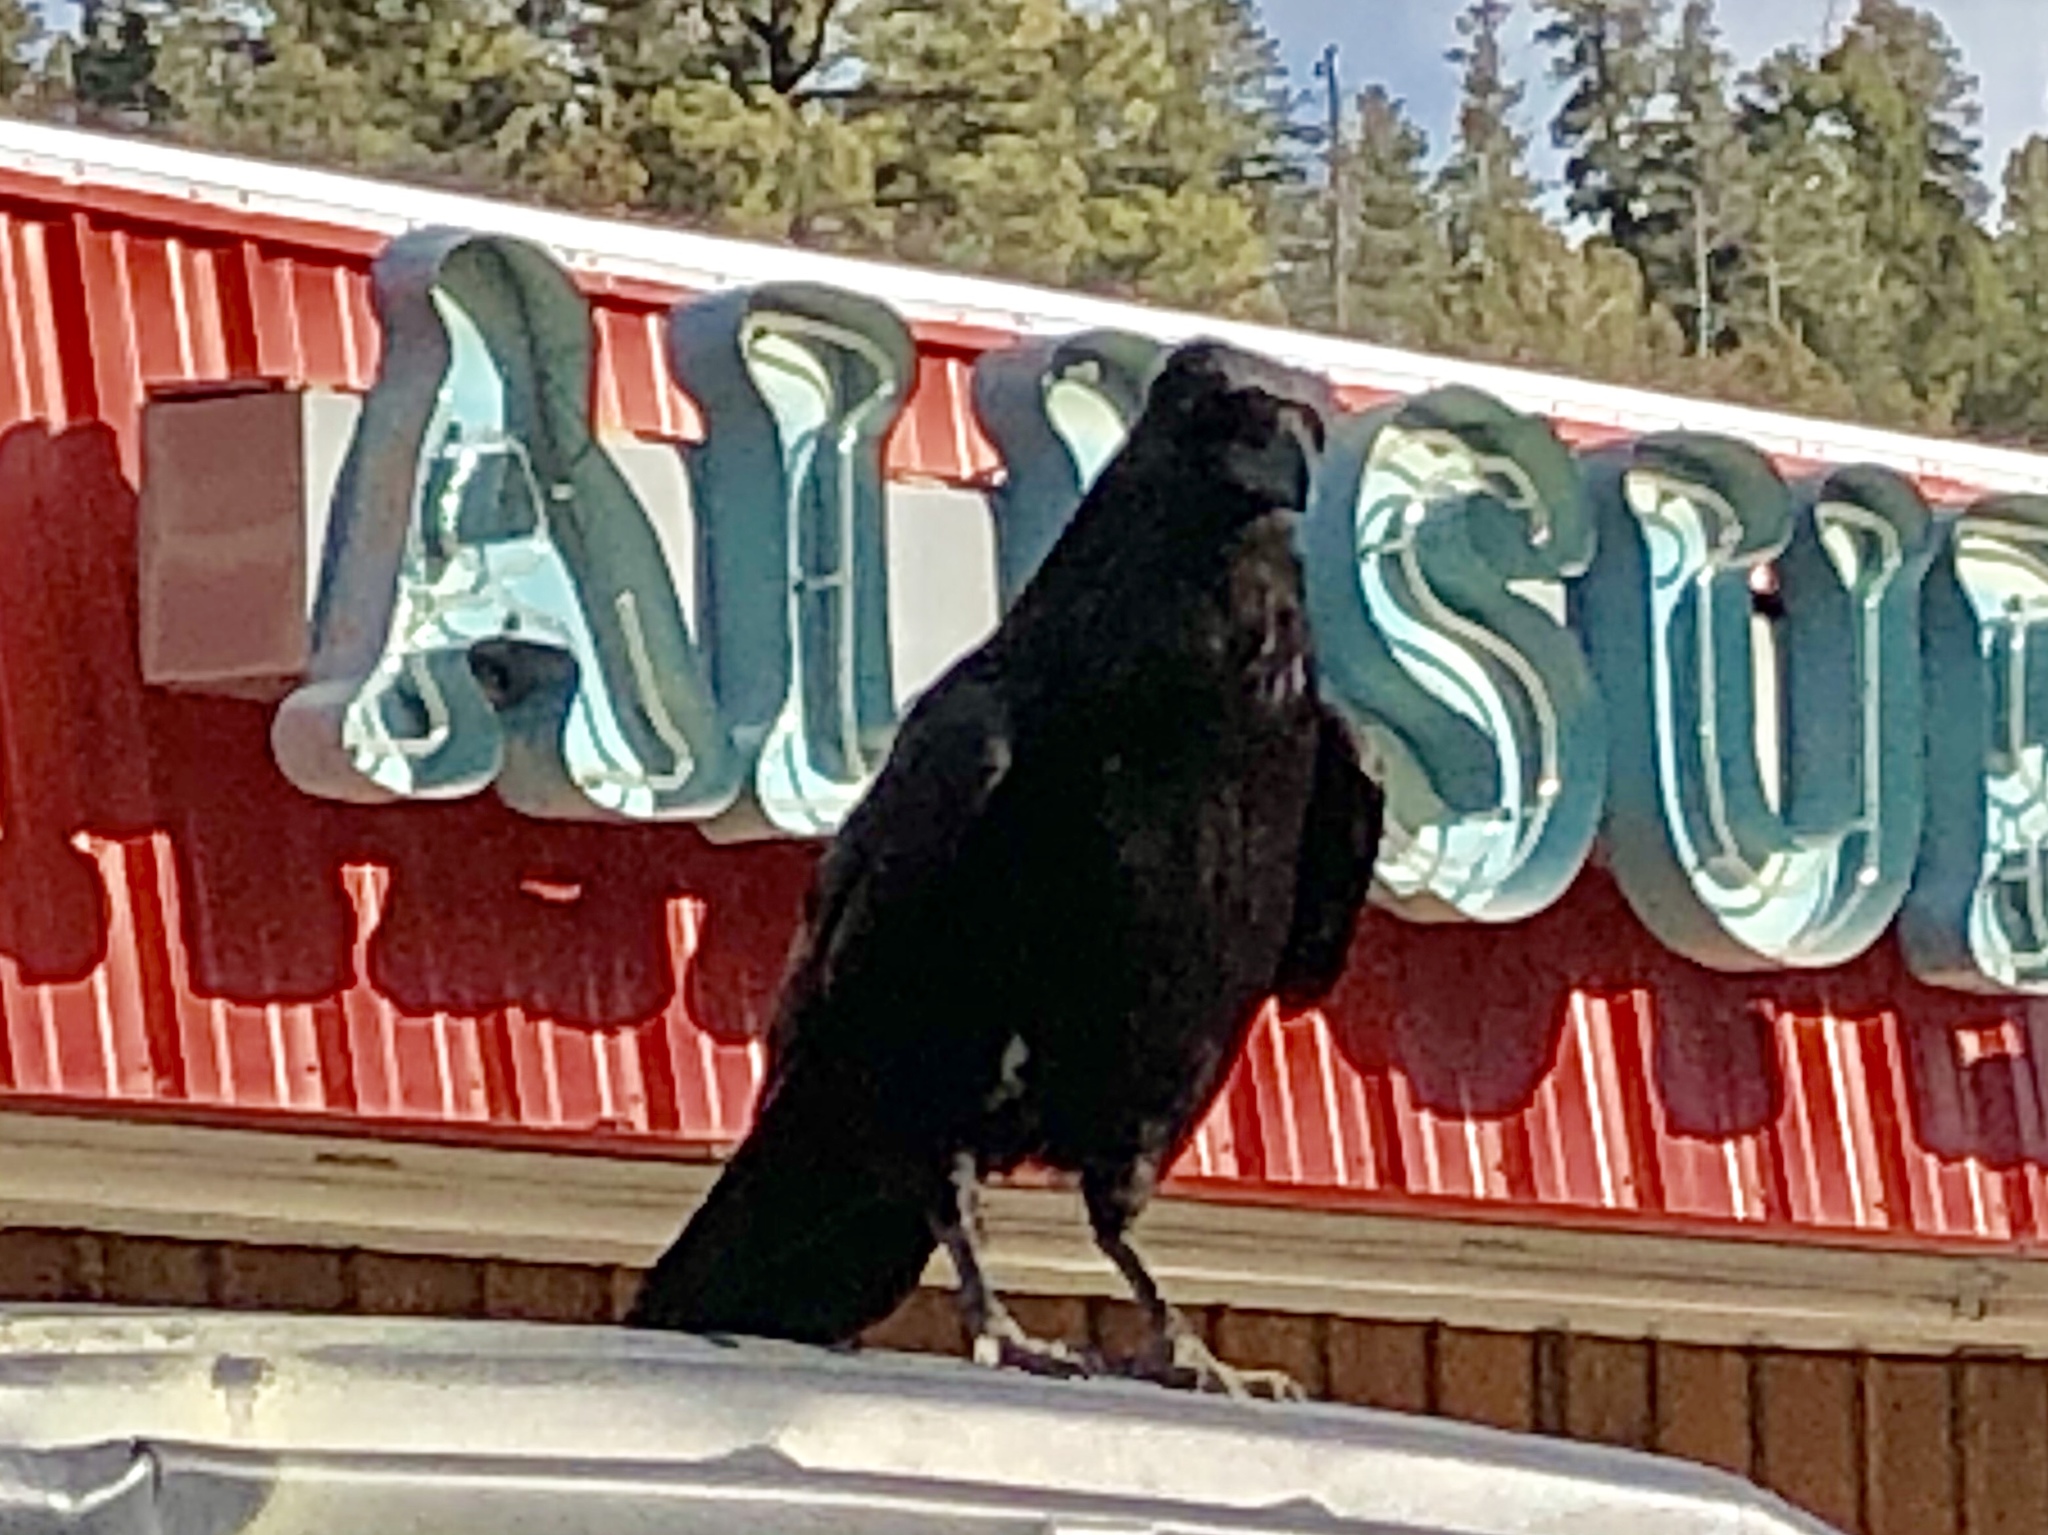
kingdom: Animalia
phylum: Chordata
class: Aves
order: Passeriformes
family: Corvidae
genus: Corvus
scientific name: Corvus corax
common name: Common raven
